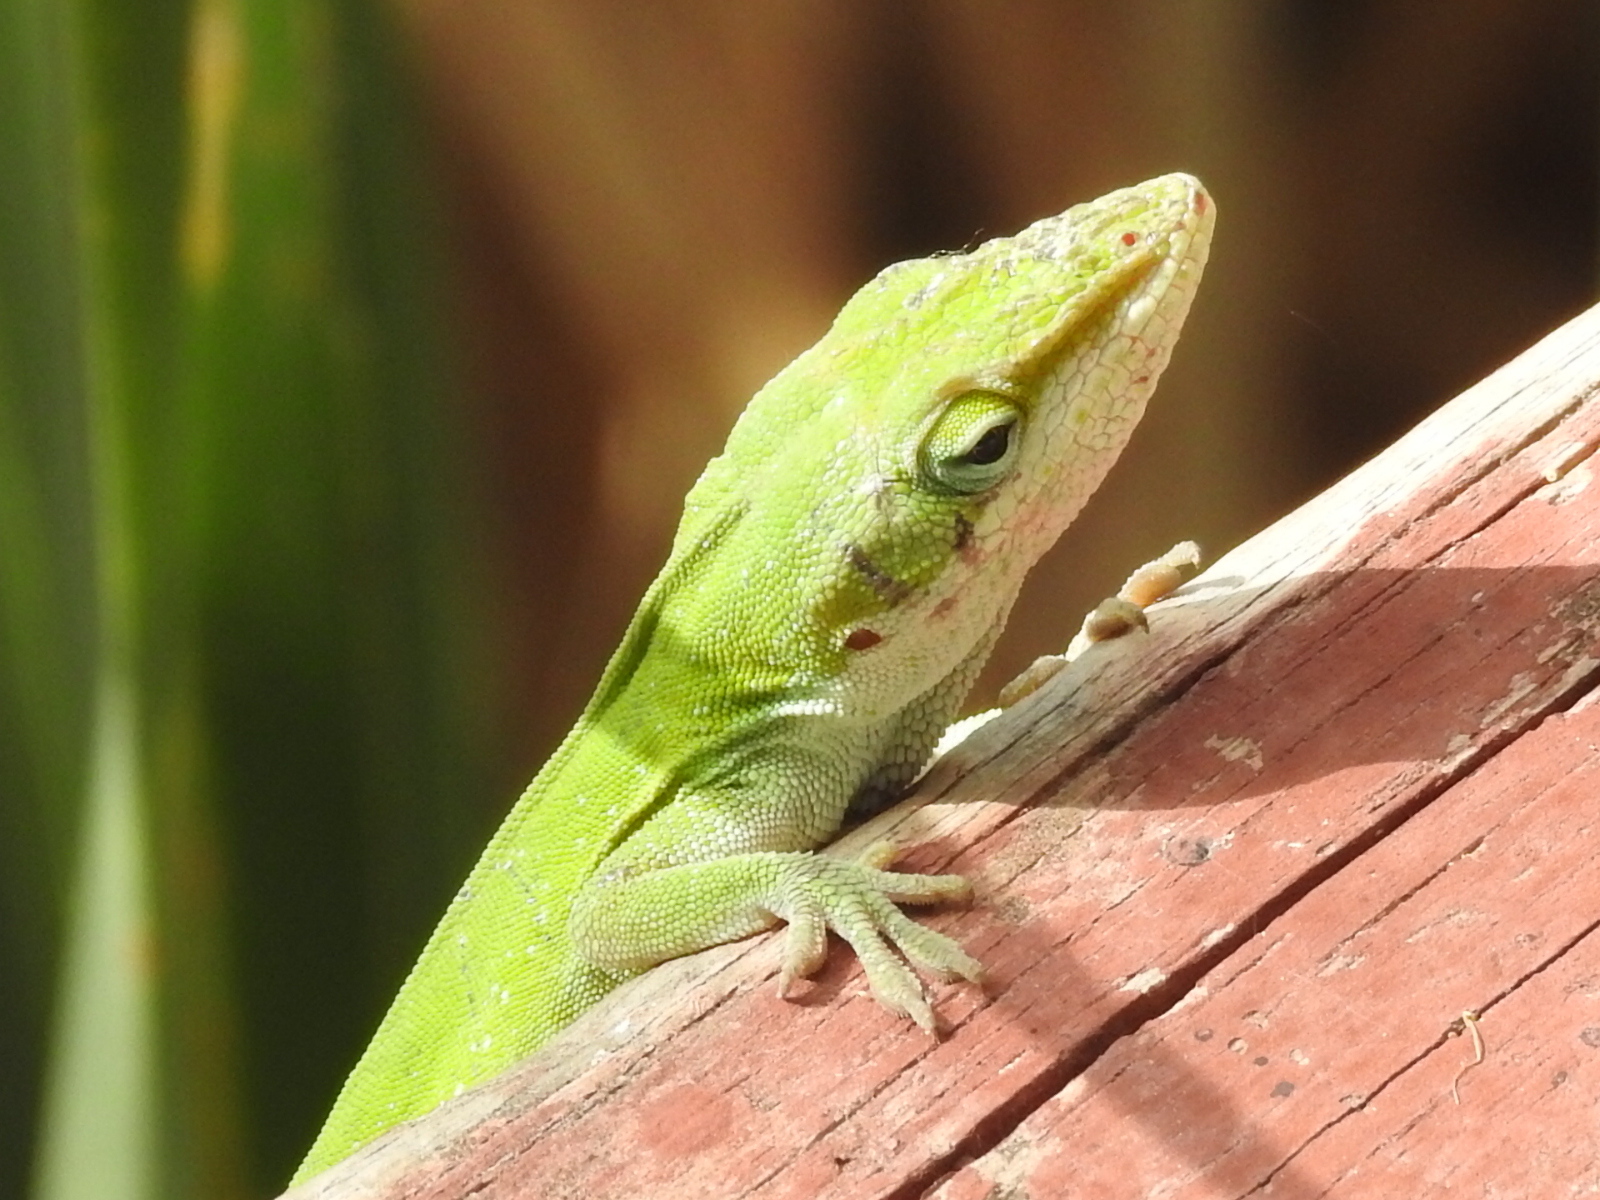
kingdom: Animalia
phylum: Chordata
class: Squamata
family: Dactyloidae
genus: Anolis
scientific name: Anolis carolinensis
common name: Green anole
